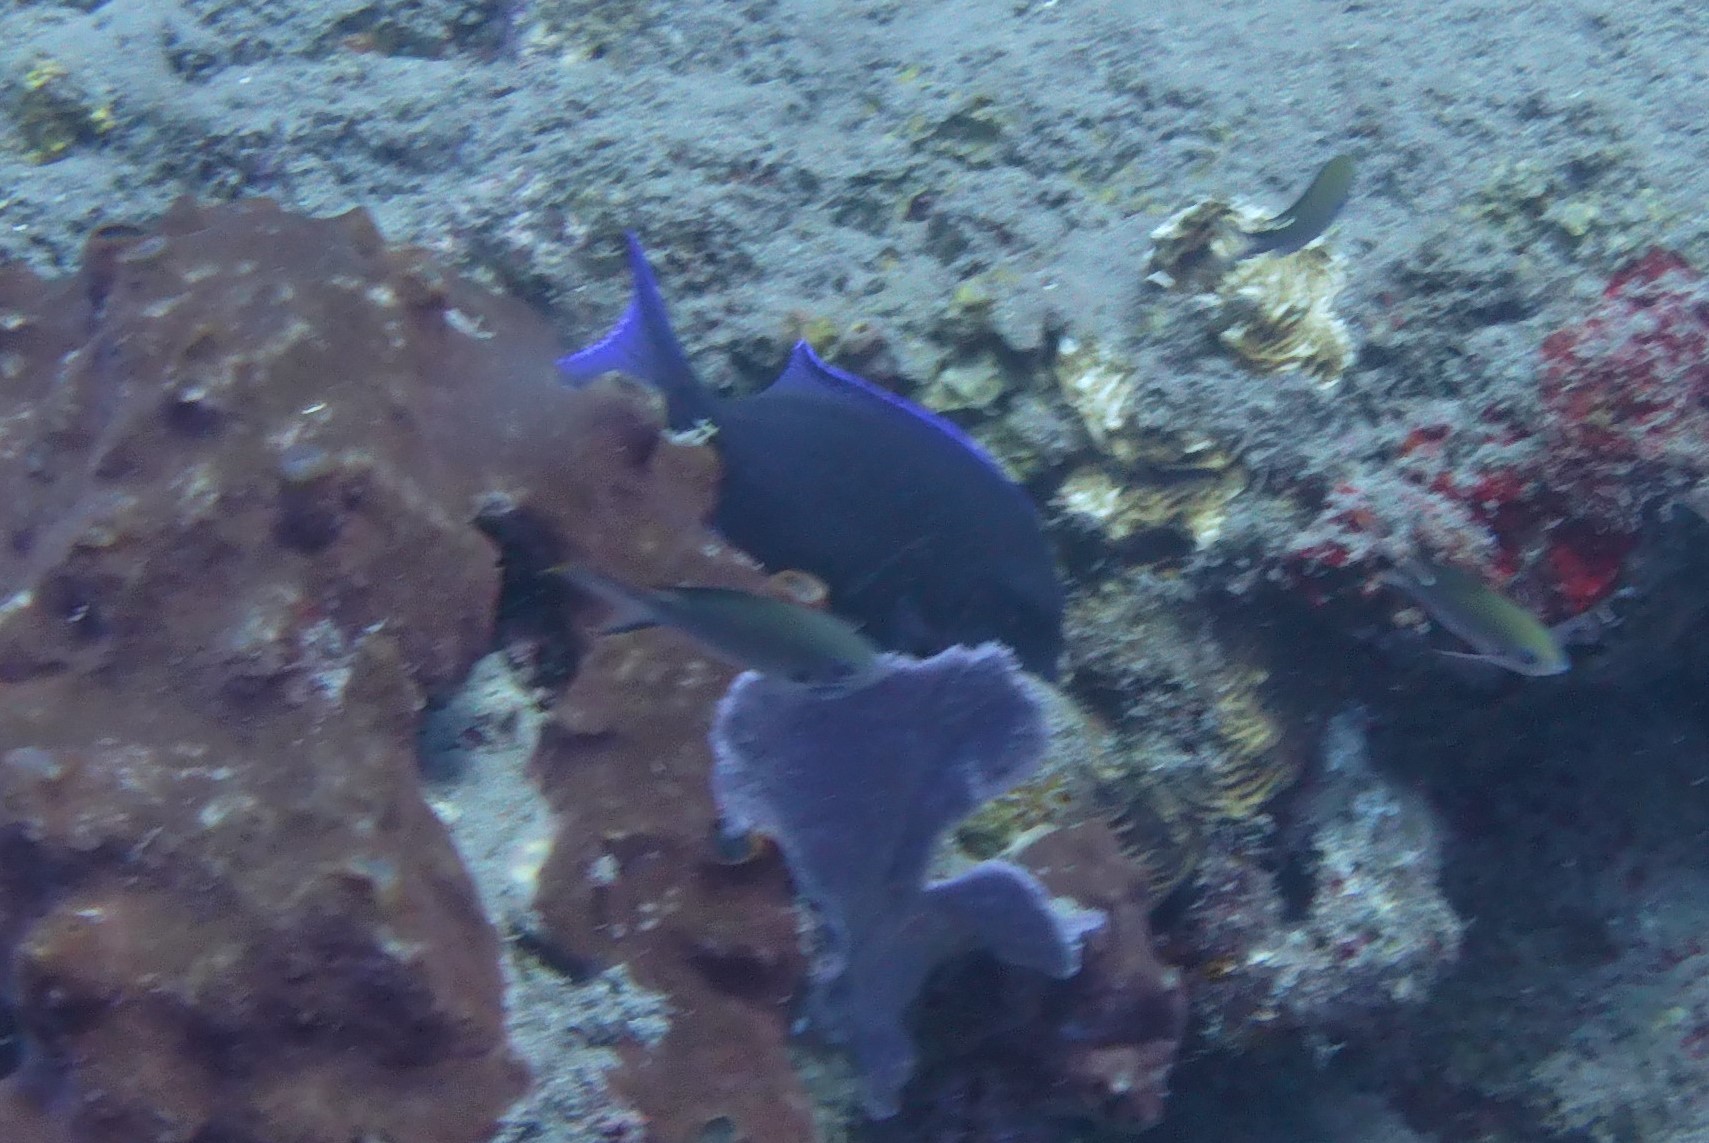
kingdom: Animalia
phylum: Chordata
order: Perciformes
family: Acanthuridae
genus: Acanthurus
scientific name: Acanthurus coeruleus
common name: Blue tang
